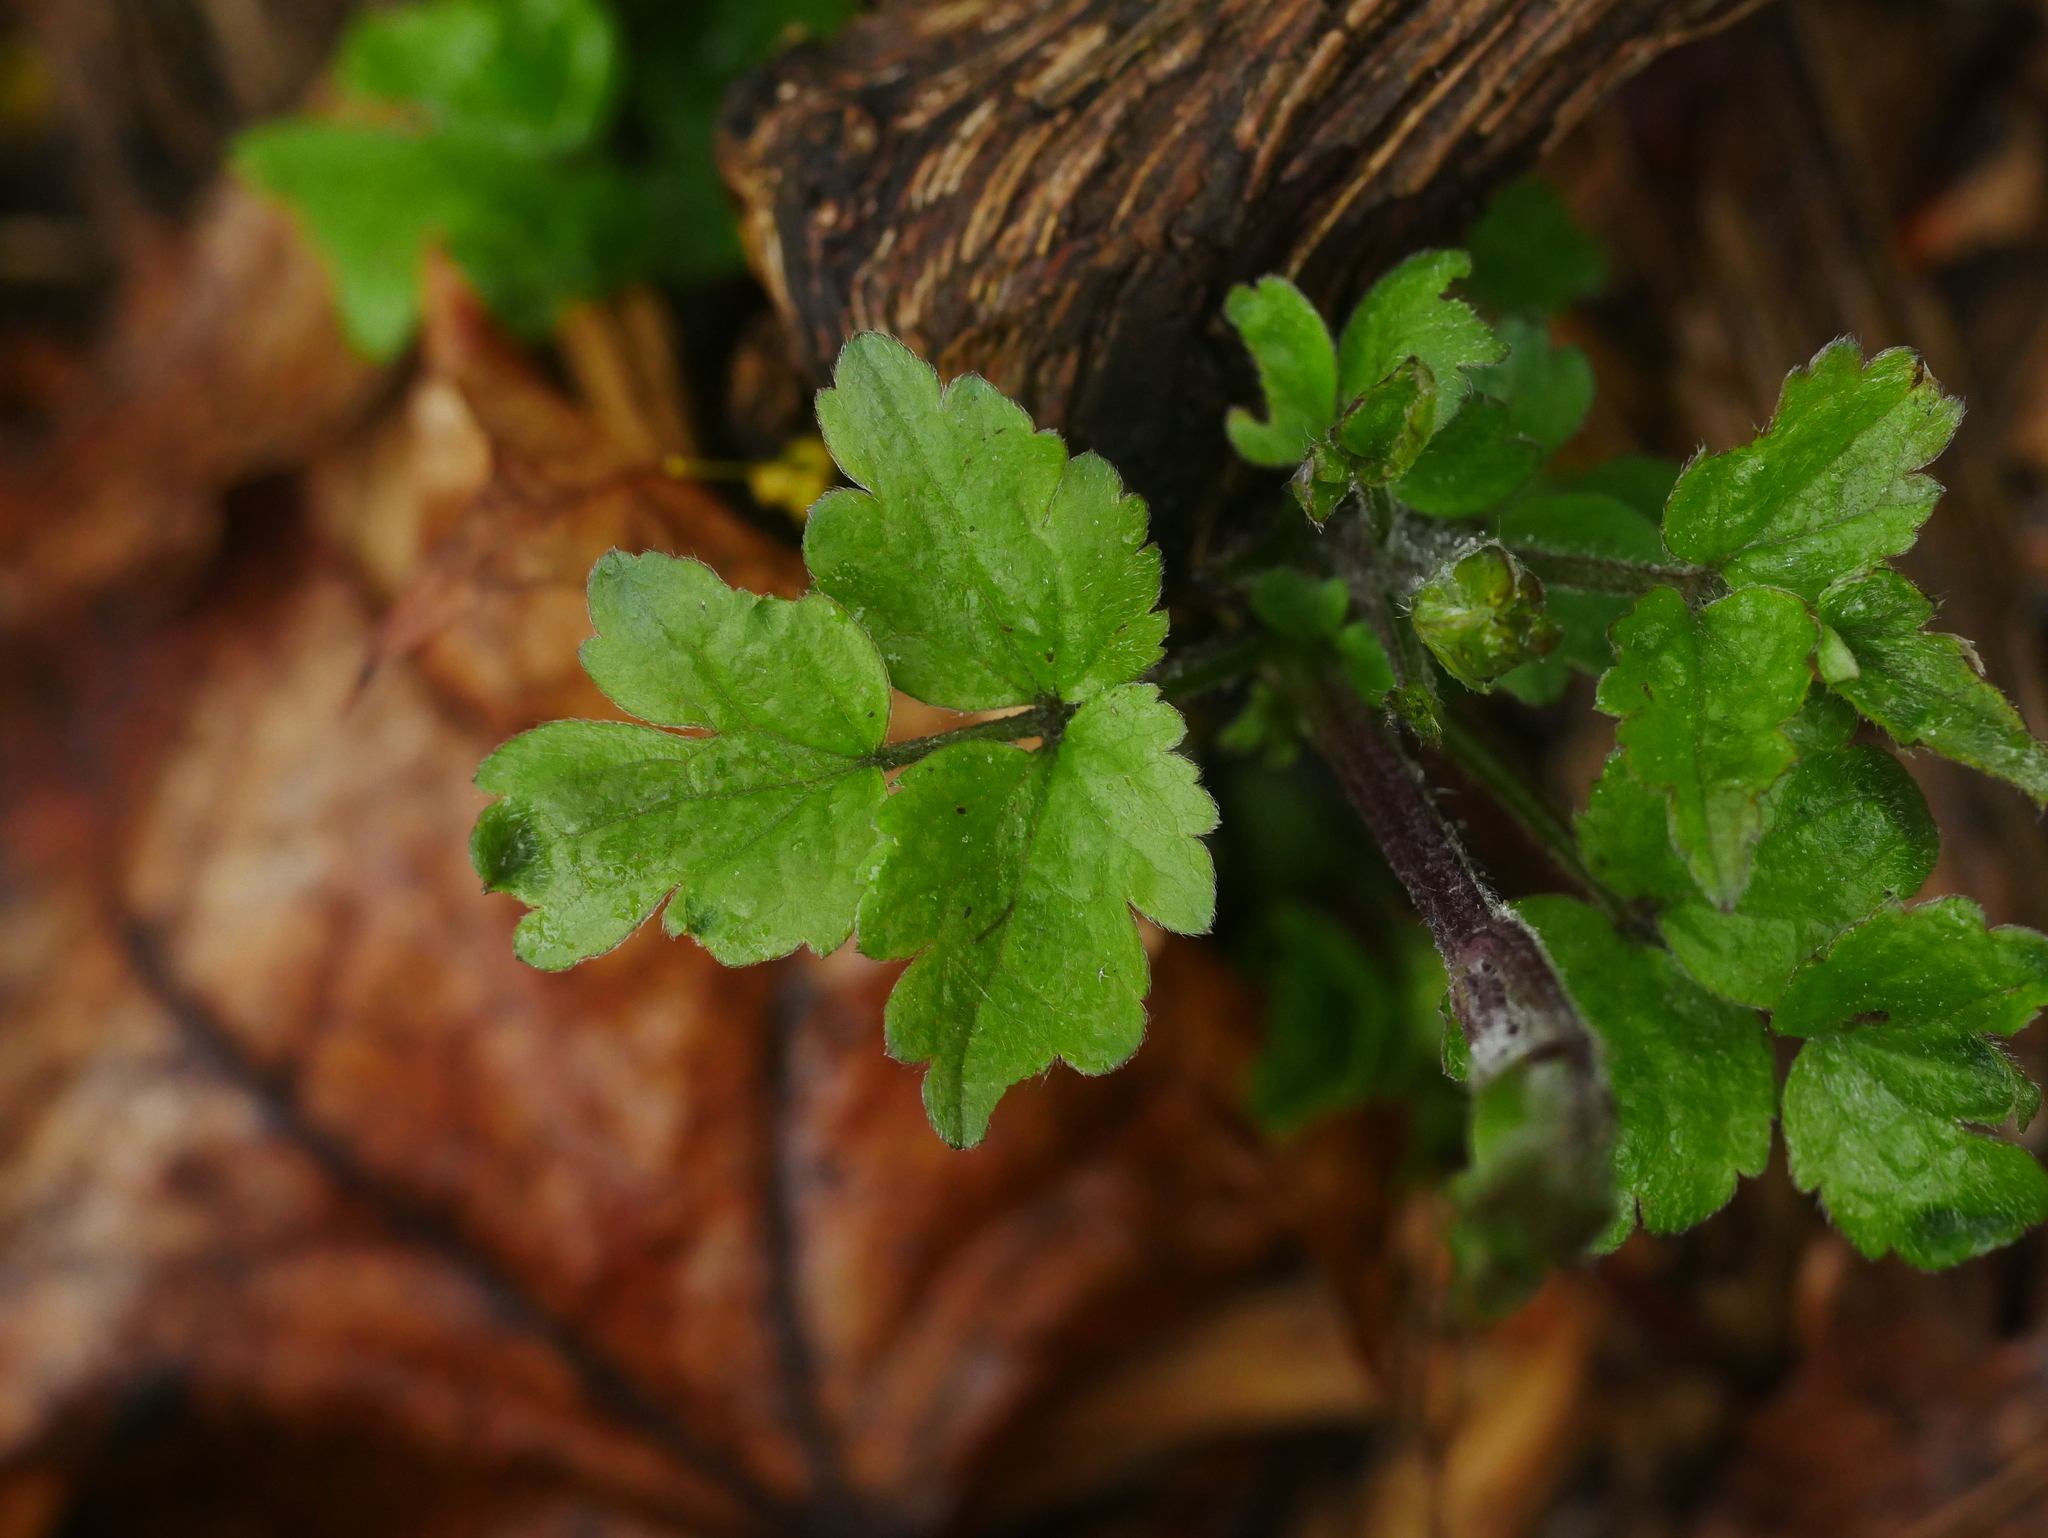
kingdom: Plantae
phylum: Tracheophyta
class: Magnoliopsida
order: Ranunculales
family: Ranunculaceae
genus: Clematis
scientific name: Clematis vitalba
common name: Evergreen clematis
